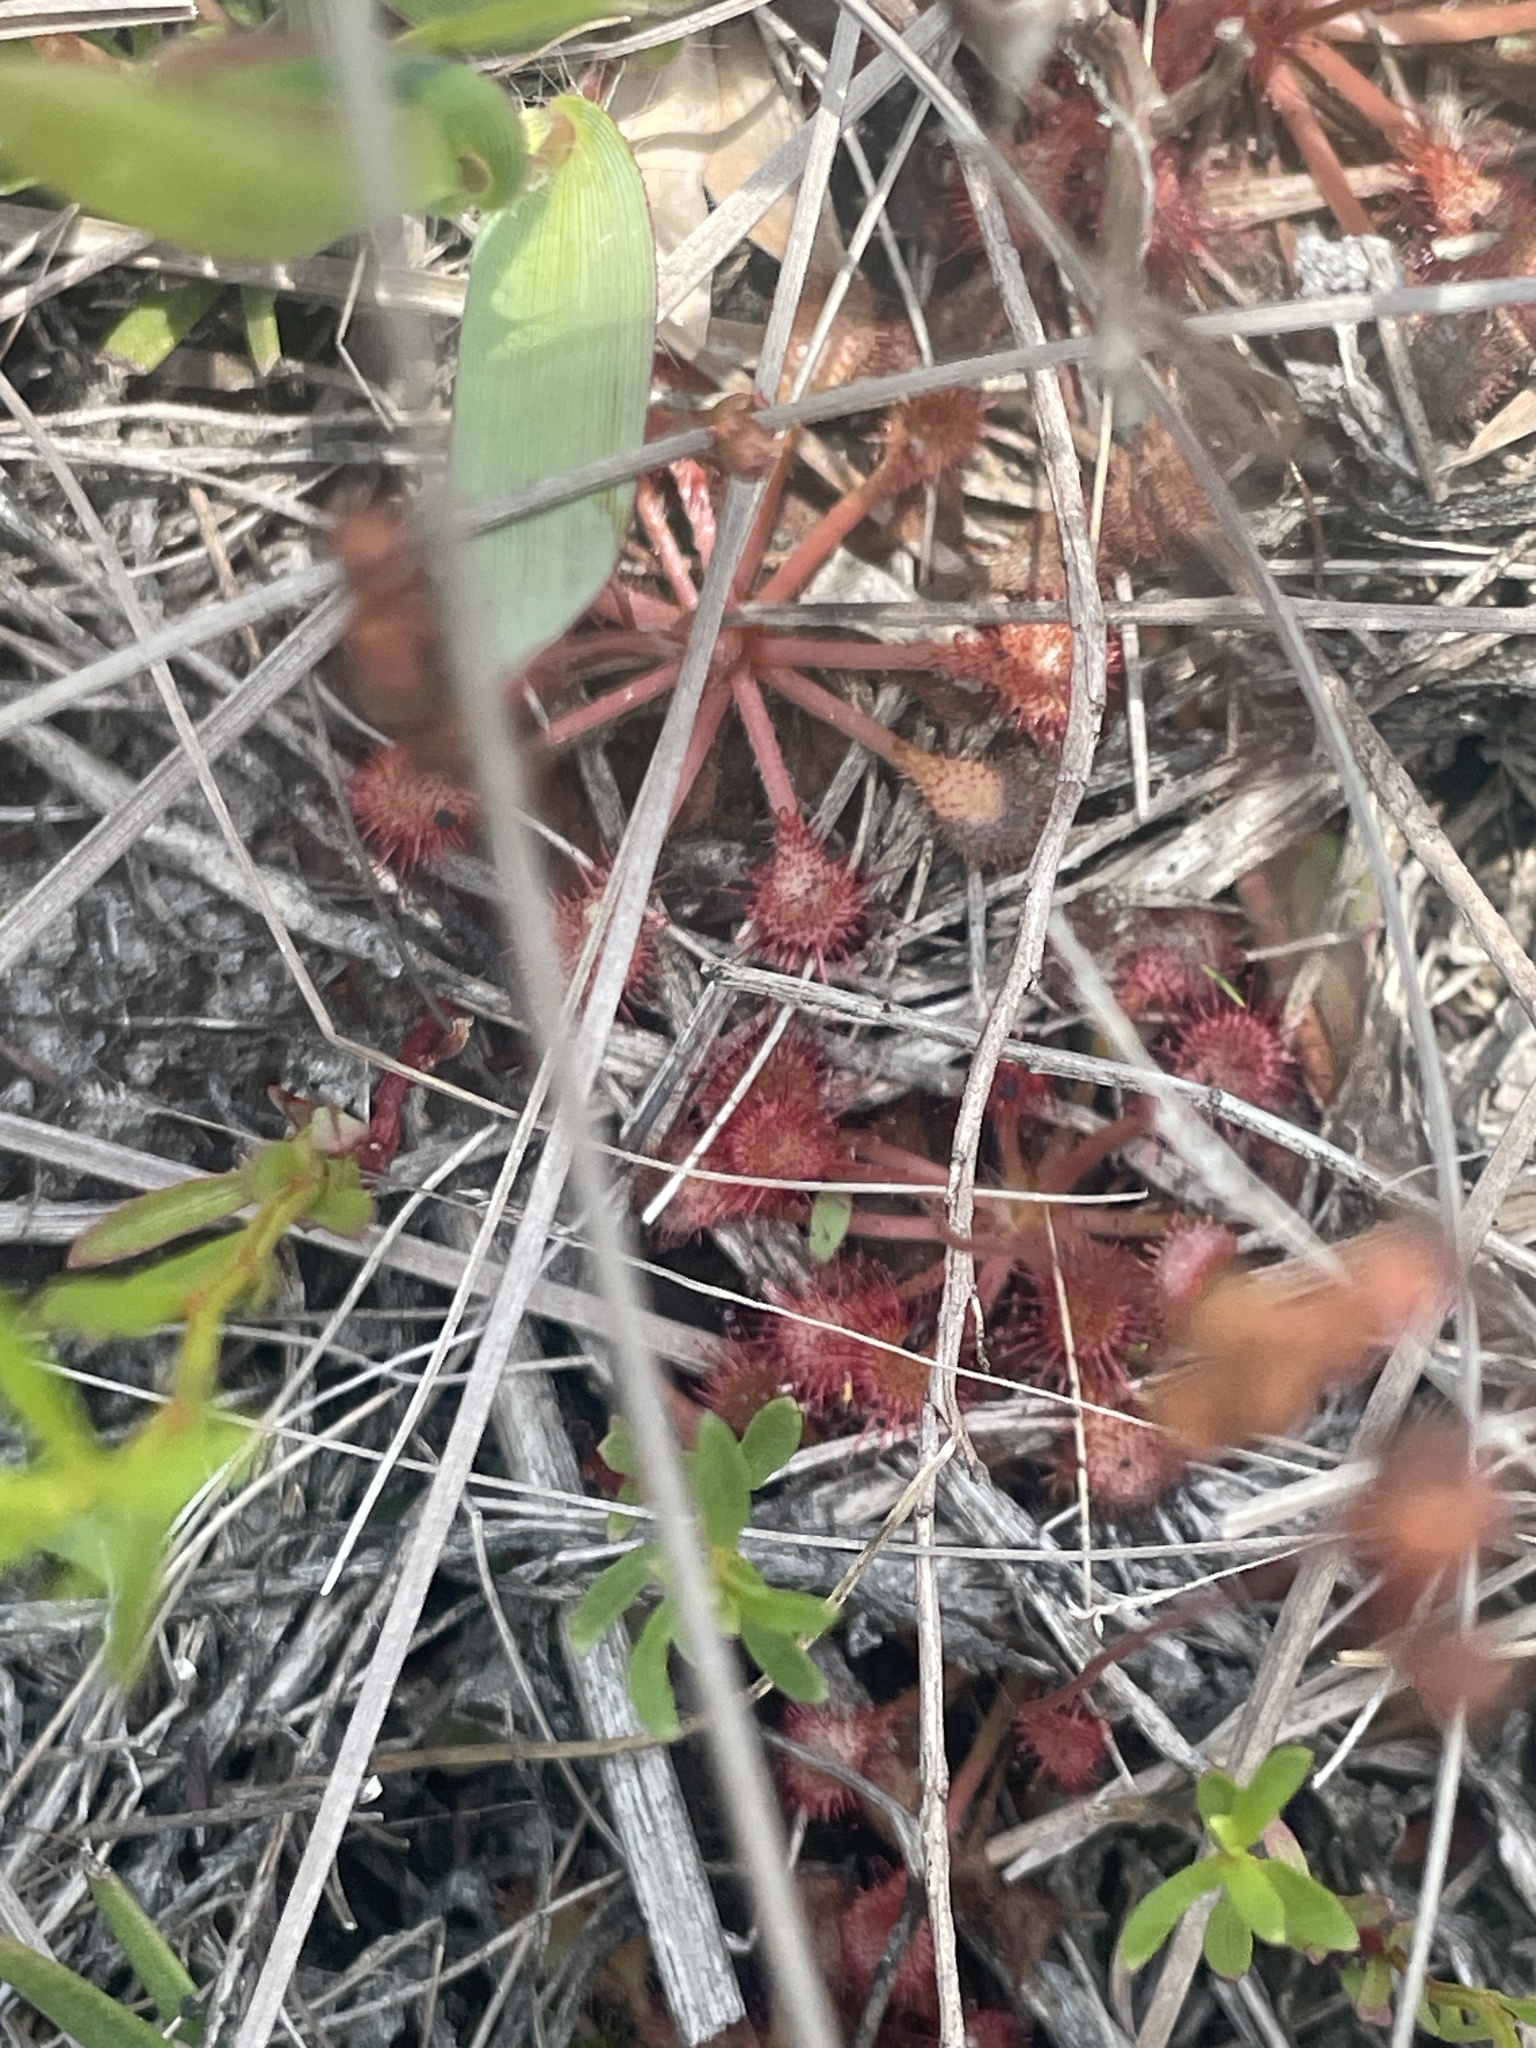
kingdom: Plantae
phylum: Tracheophyta
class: Magnoliopsida
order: Caryophyllales
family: Droseraceae
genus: Drosera
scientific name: Drosera capillaris
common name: Pink sundew
